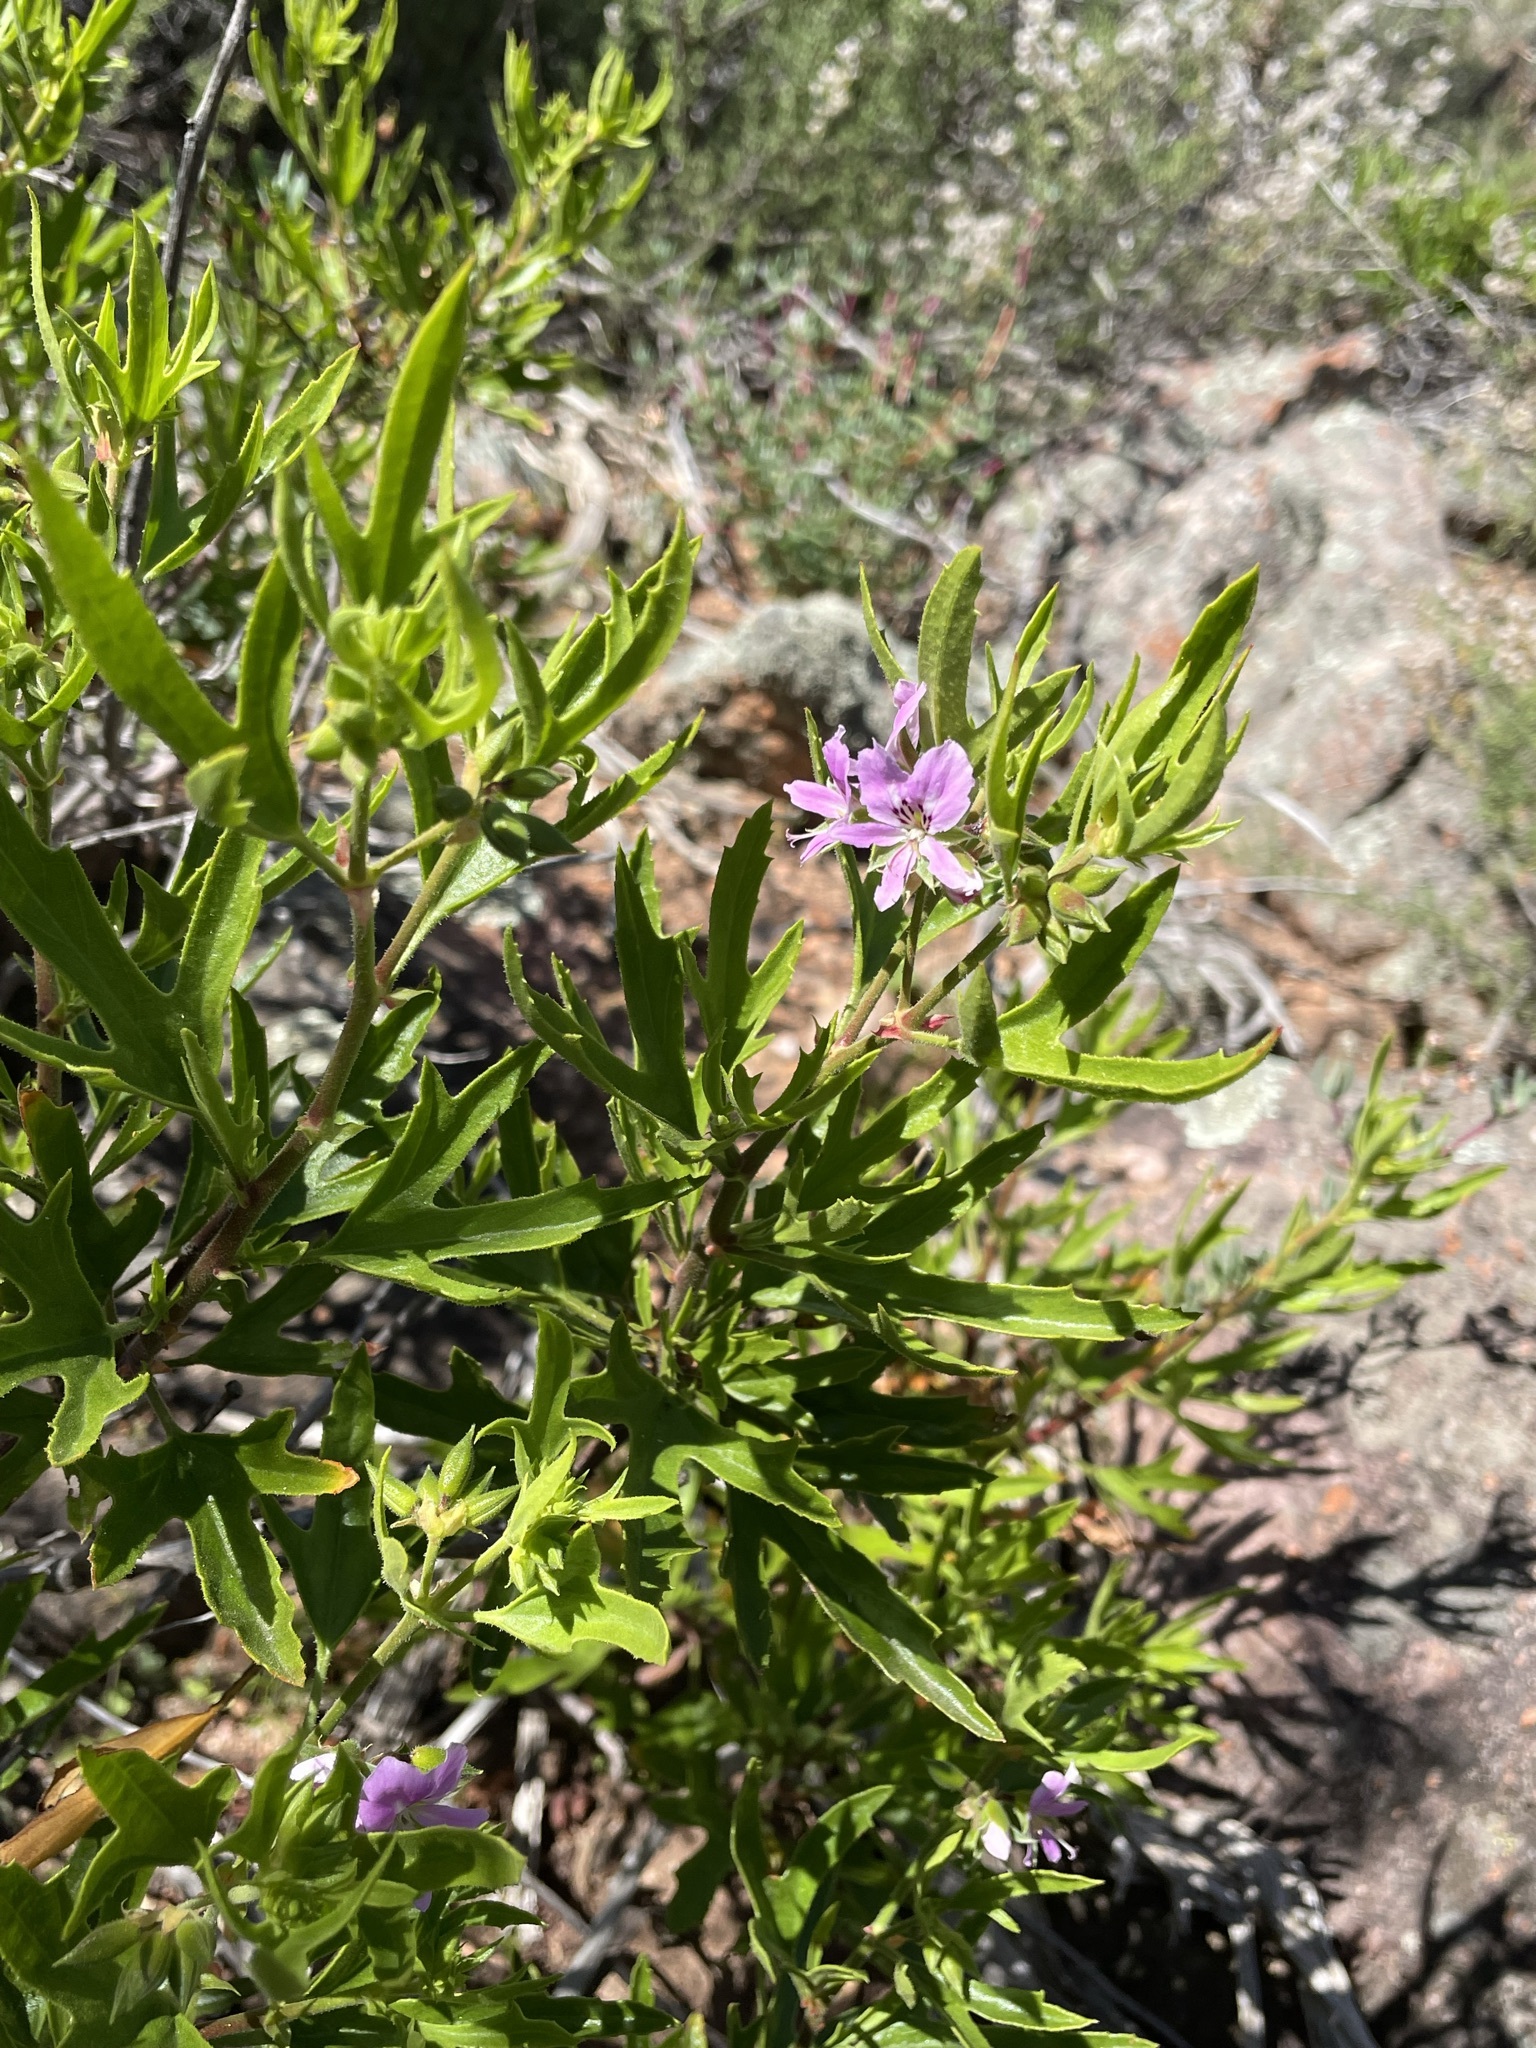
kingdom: Plantae
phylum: Tracheophyta
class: Magnoliopsida
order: Geraniales
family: Geraniaceae
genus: Pelargonium
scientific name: Pelargonium scabrum
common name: Apricot geranium
